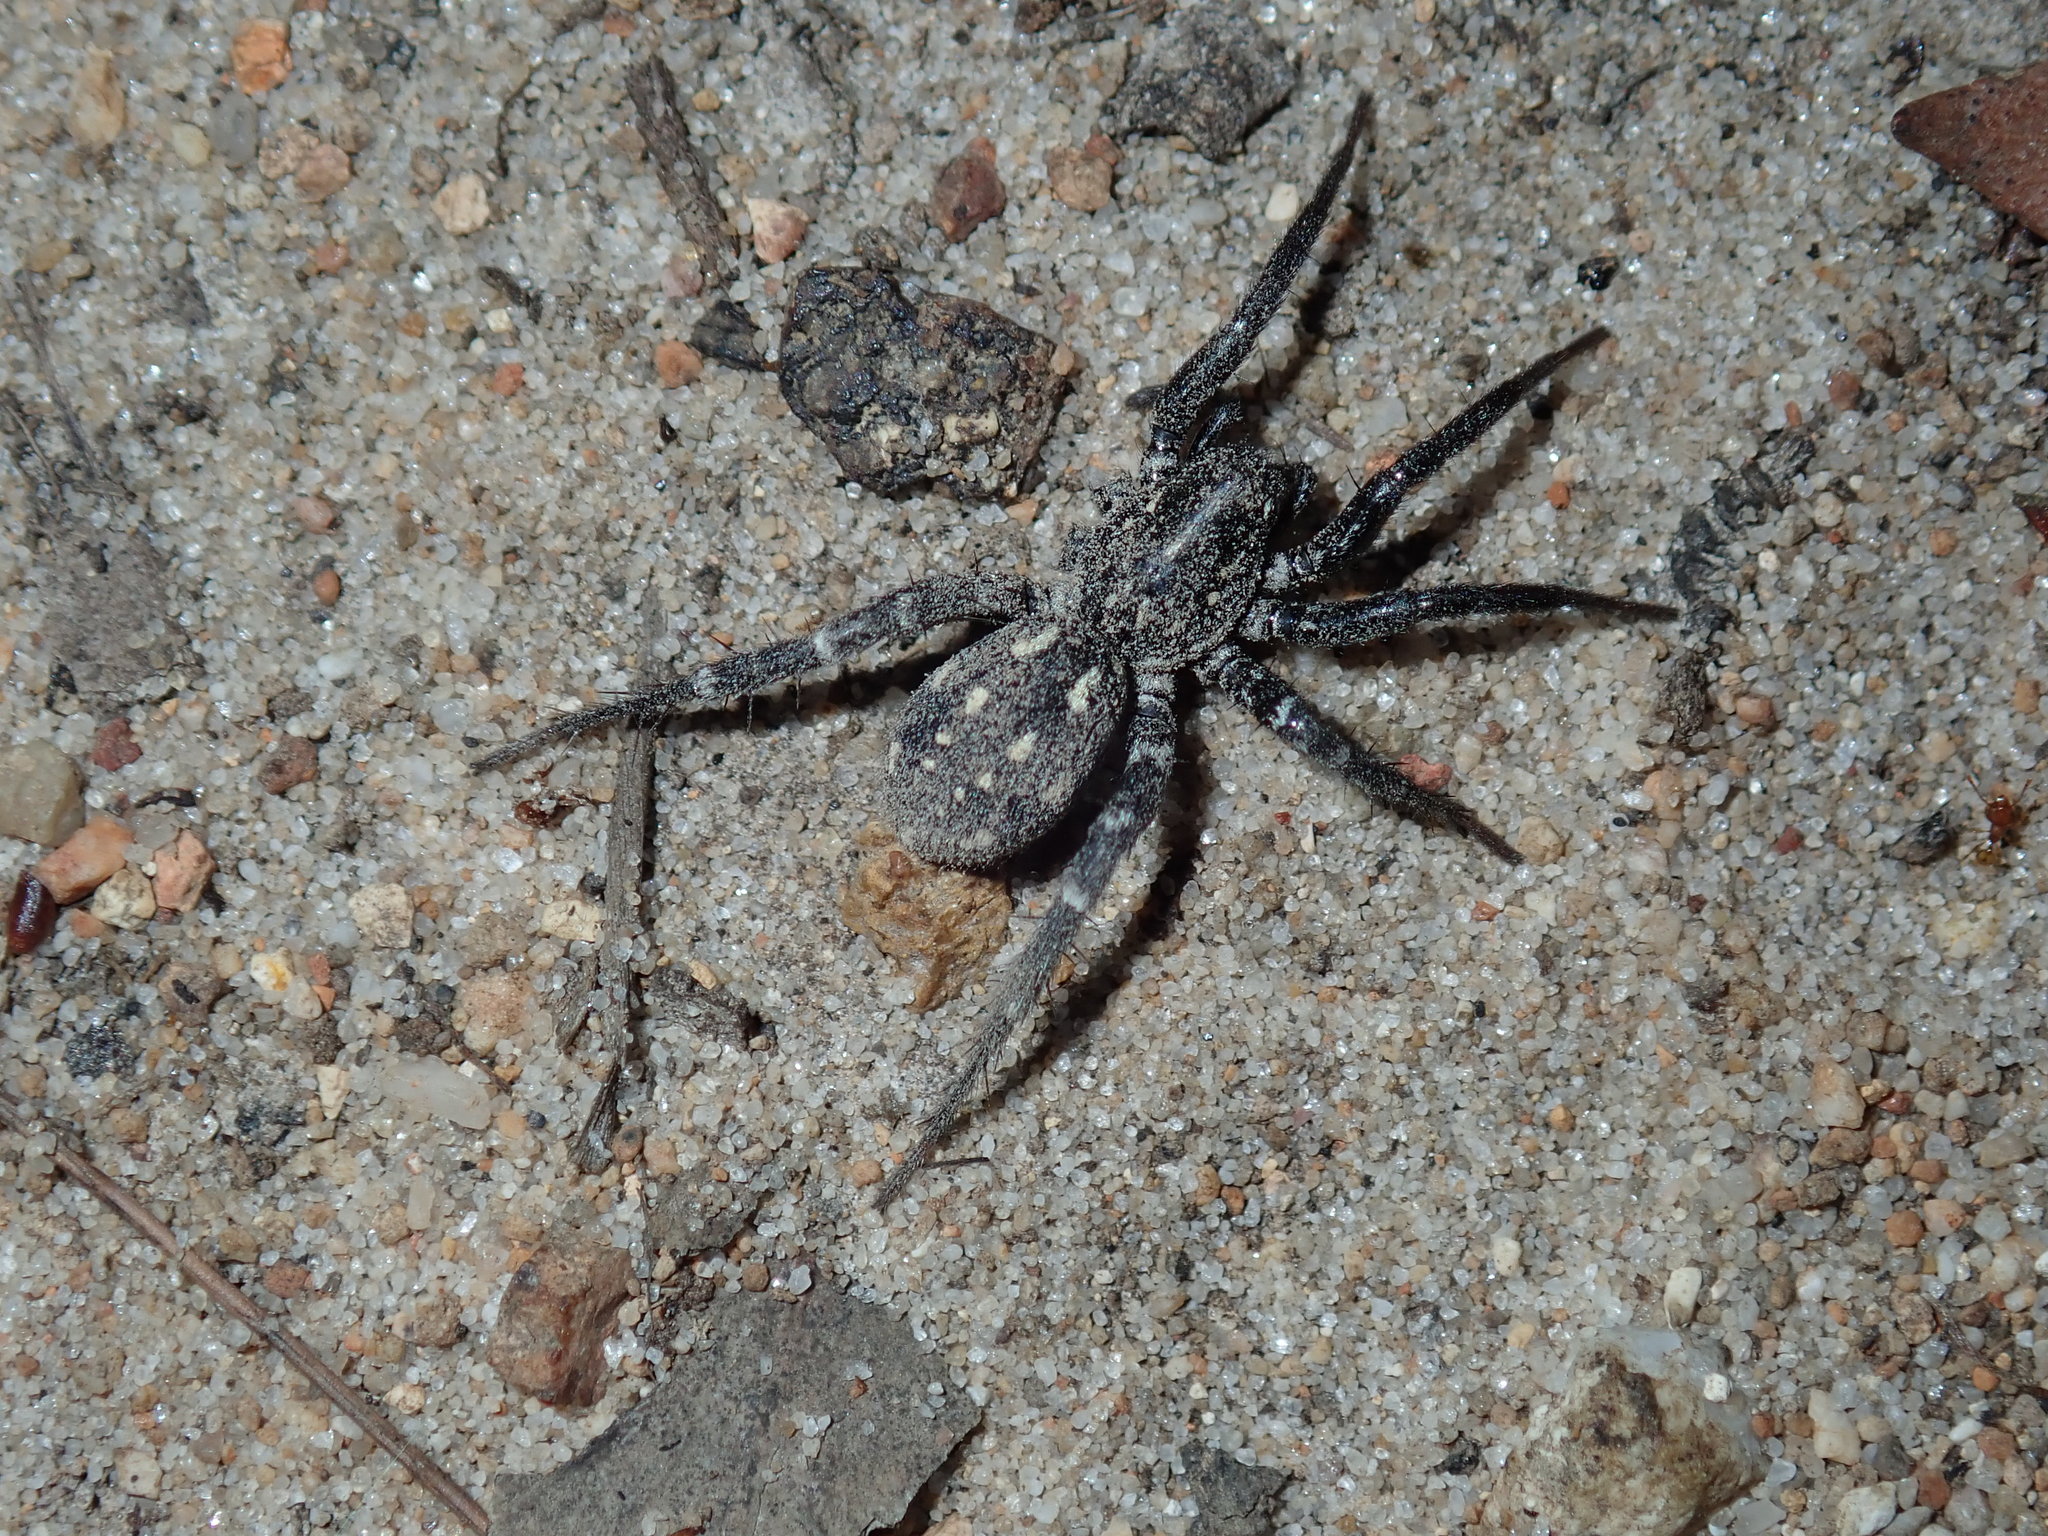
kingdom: Animalia
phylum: Arthropoda
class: Arachnida
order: Araneae
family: Corinnidae
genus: Nyssus
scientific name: Nyssus albopunctatus
